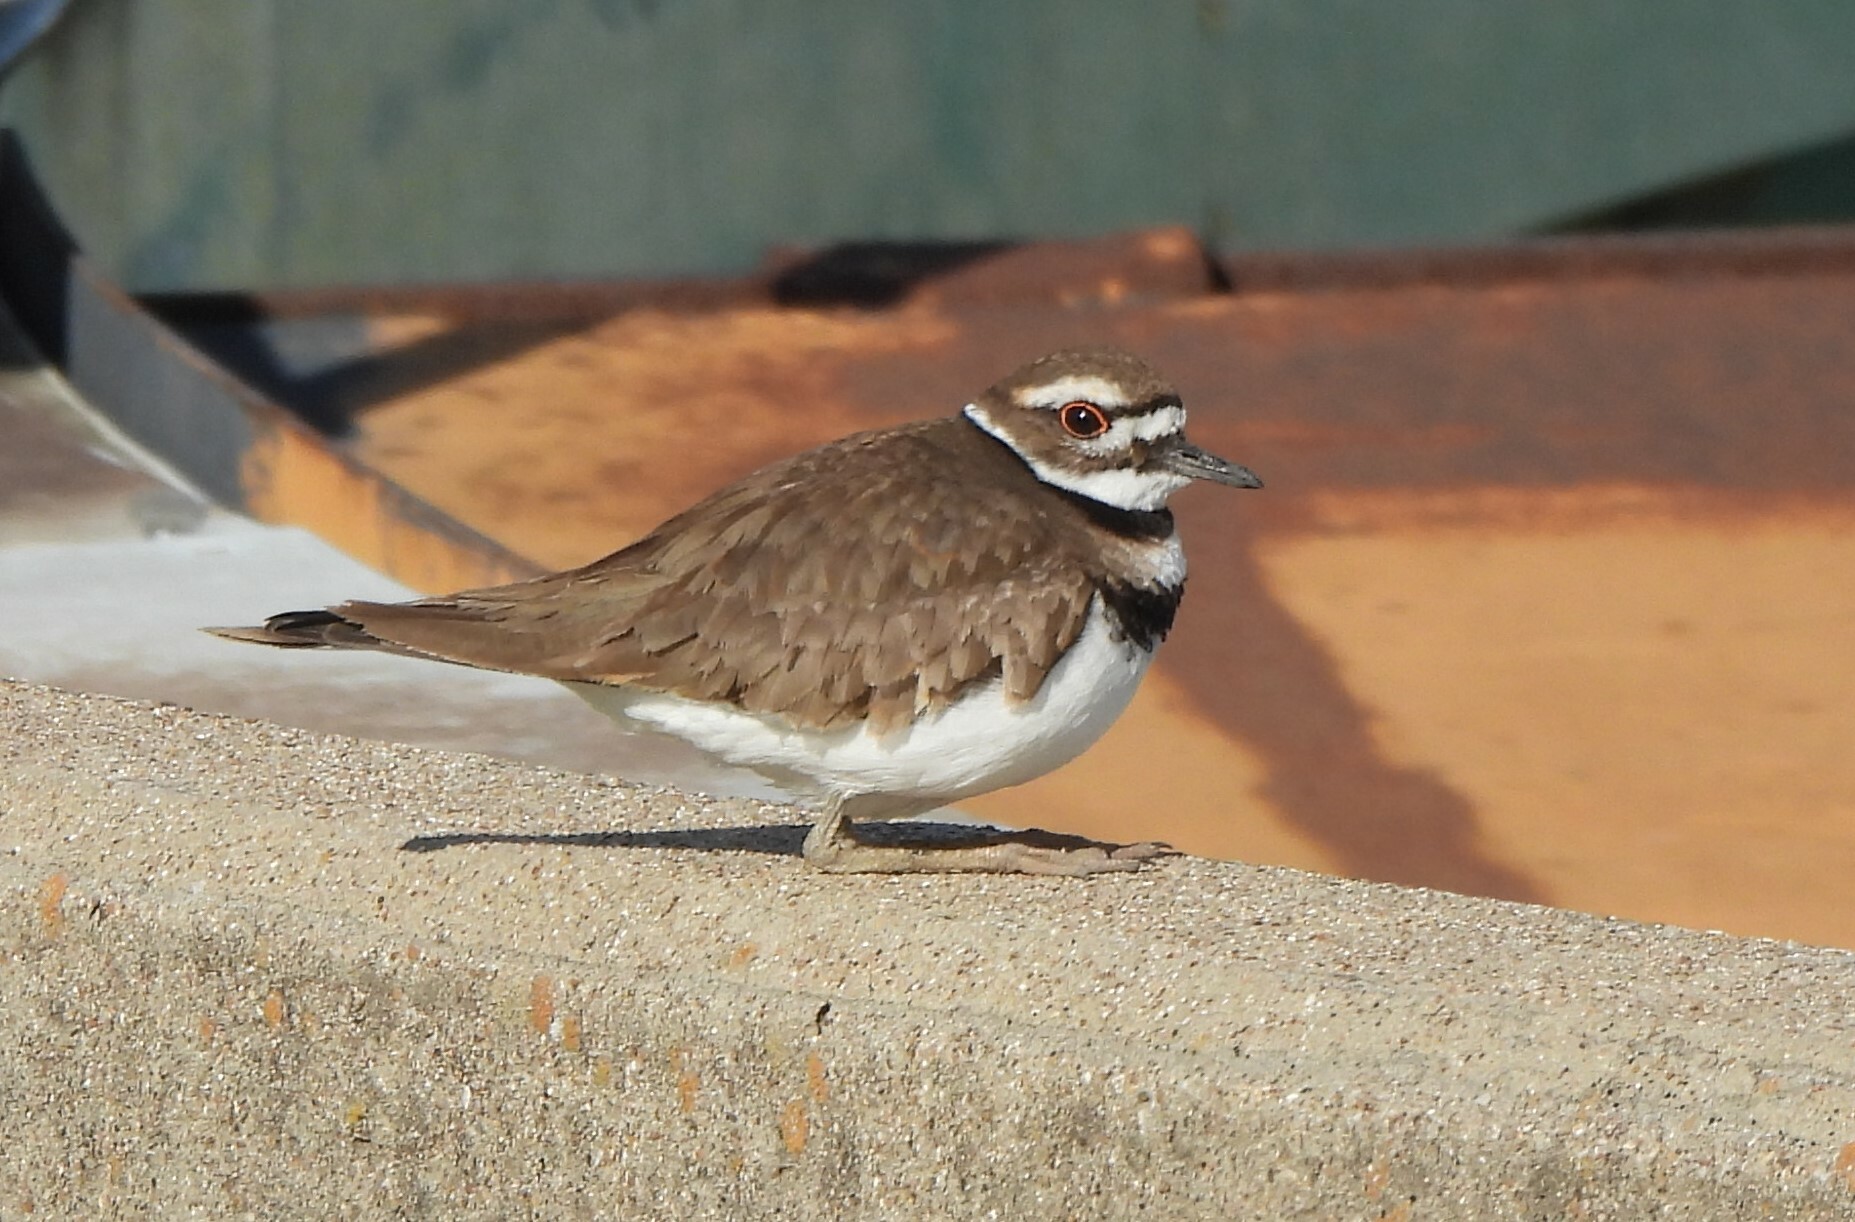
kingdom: Animalia
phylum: Chordata
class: Aves
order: Charadriiformes
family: Charadriidae
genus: Charadrius
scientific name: Charadrius vociferus
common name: Killdeer
